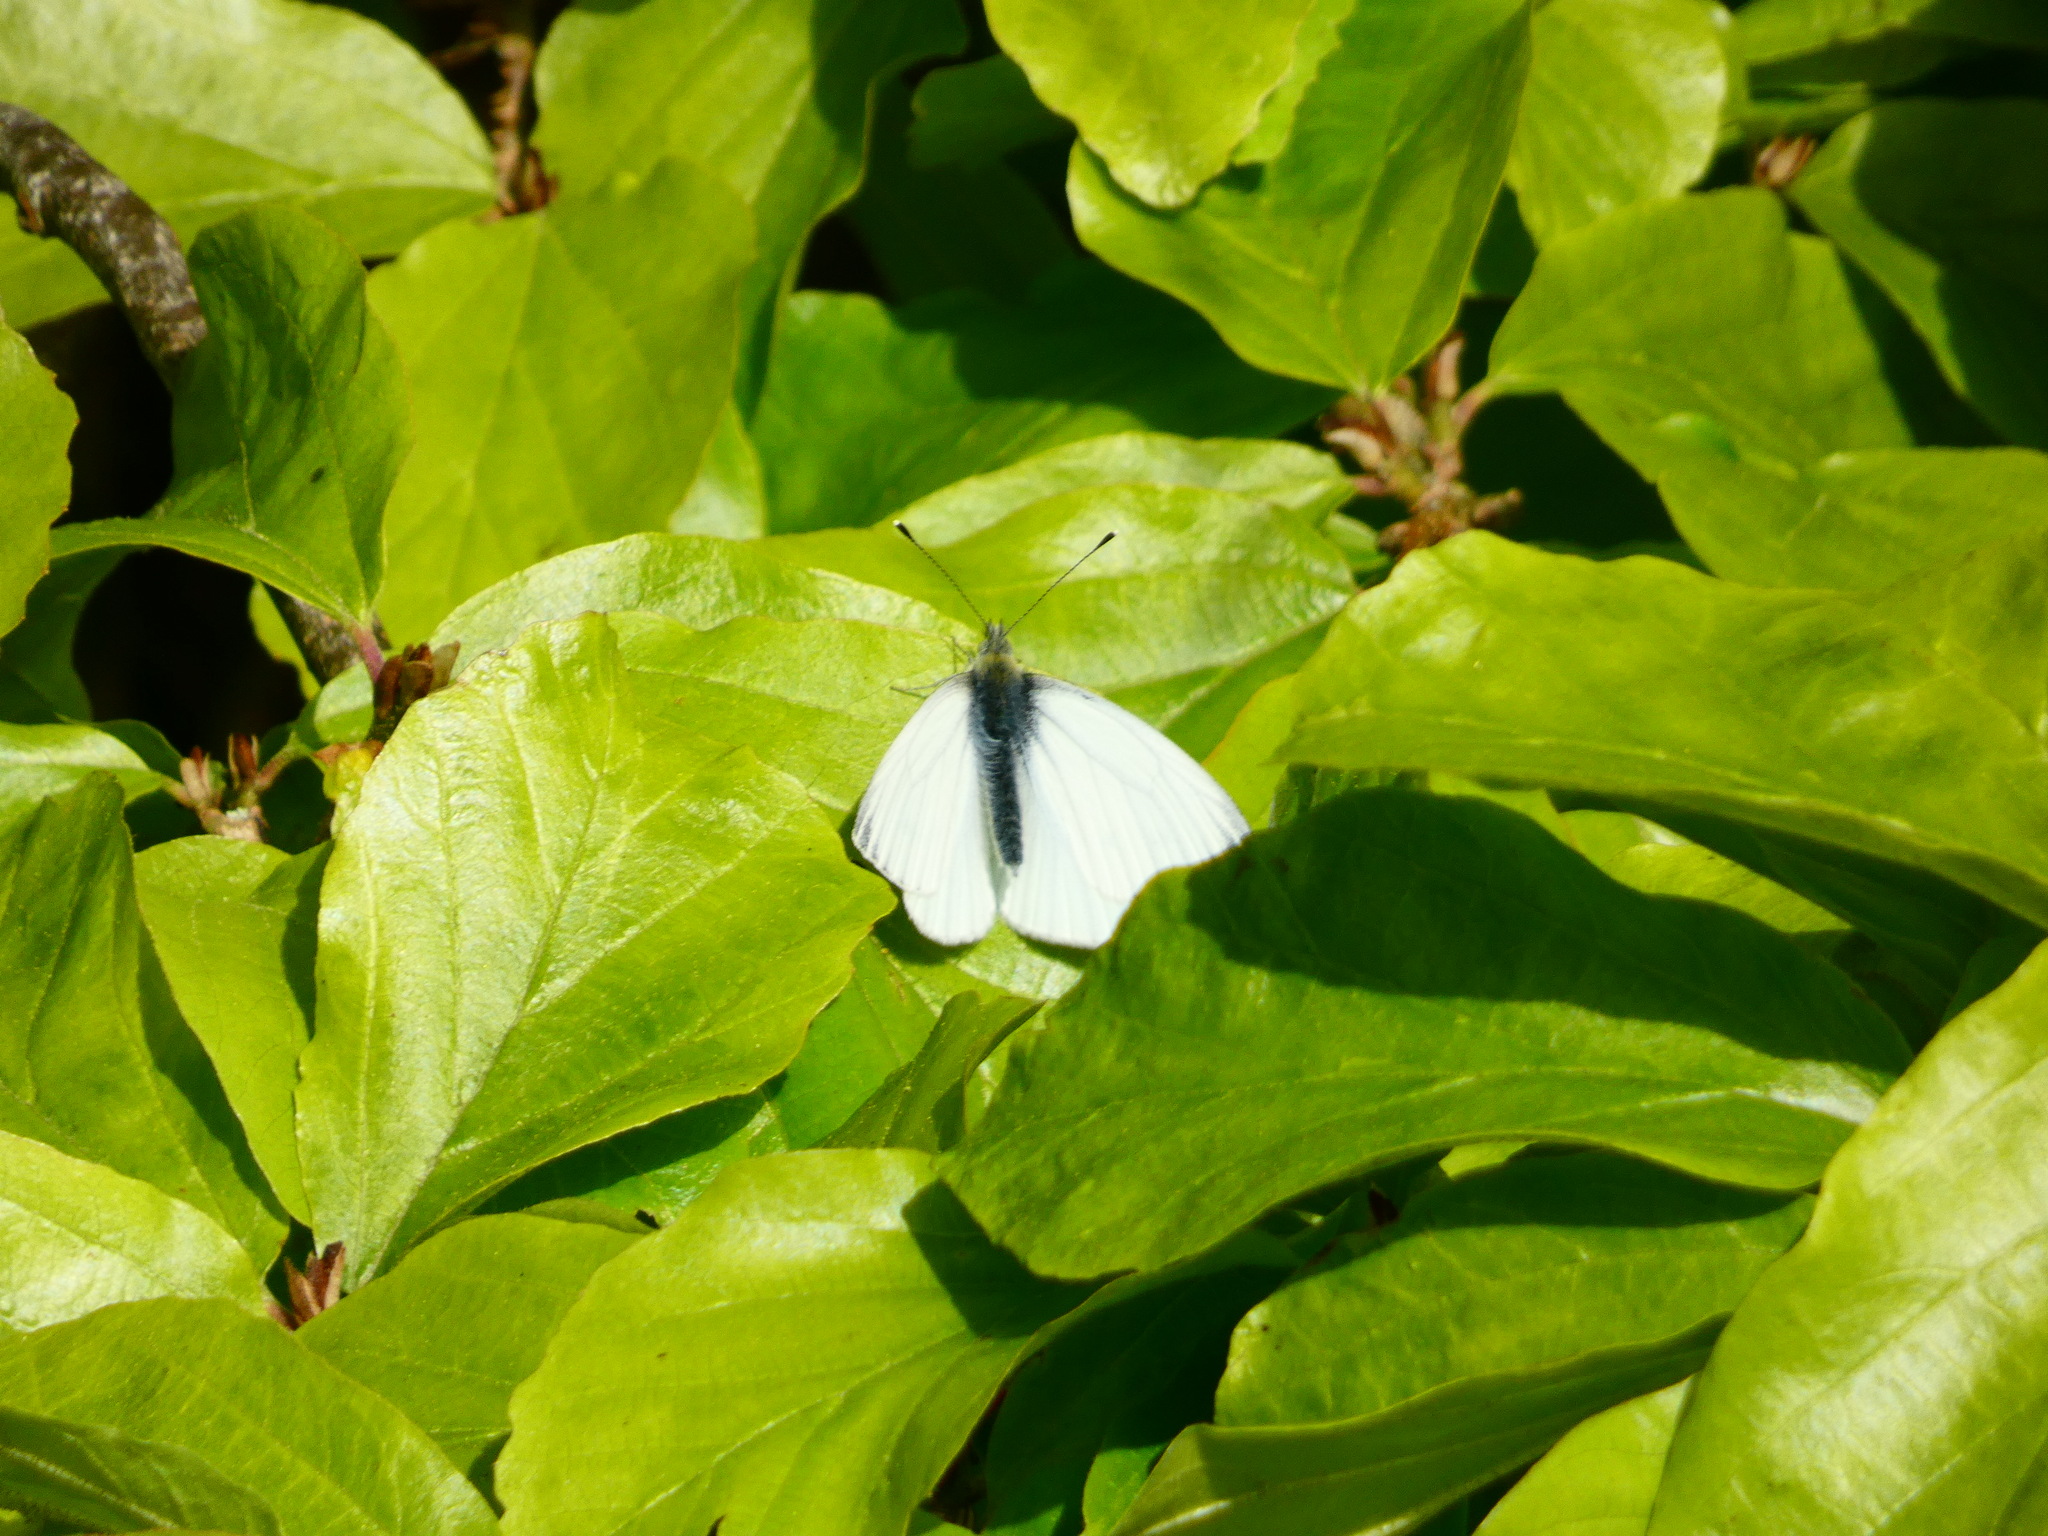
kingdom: Animalia
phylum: Arthropoda
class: Insecta
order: Lepidoptera
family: Pieridae
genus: Pieris
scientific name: Pieris napi
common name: Green-veined white
